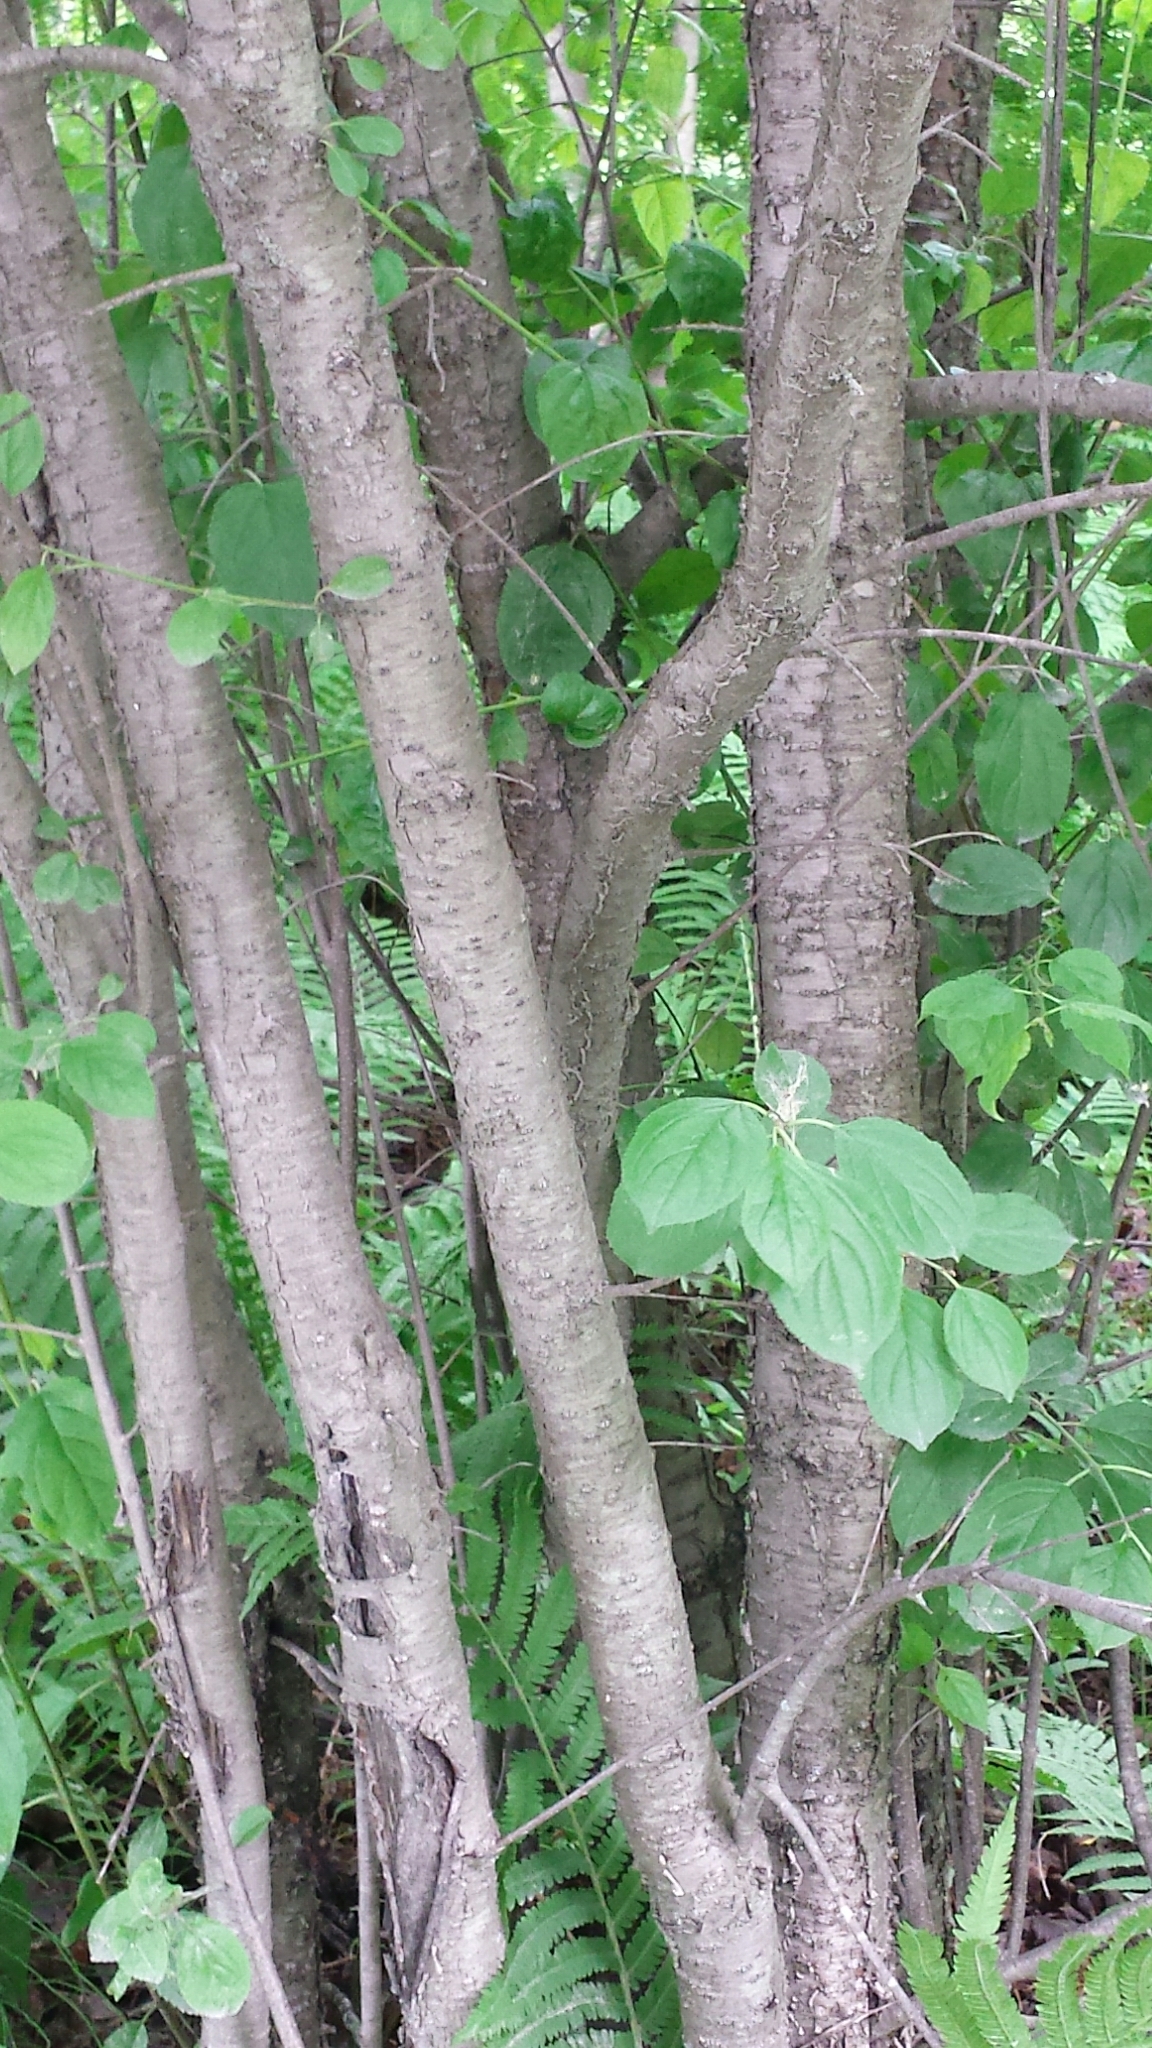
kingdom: Plantae
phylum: Tracheophyta
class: Magnoliopsida
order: Rosales
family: Rhamnaceae
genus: Rhamnus
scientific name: Rhamnus cathartica
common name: Common buckthorn
